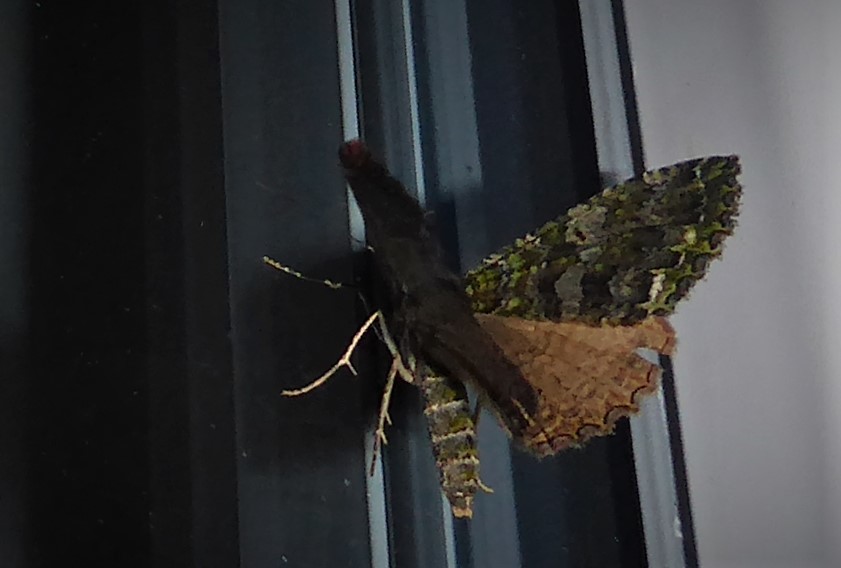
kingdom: Animalia
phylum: Arthropoda
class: Insecta
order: Lepidoptera
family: Geometridae
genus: Austrocidaria
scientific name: Austrocidaria similata
